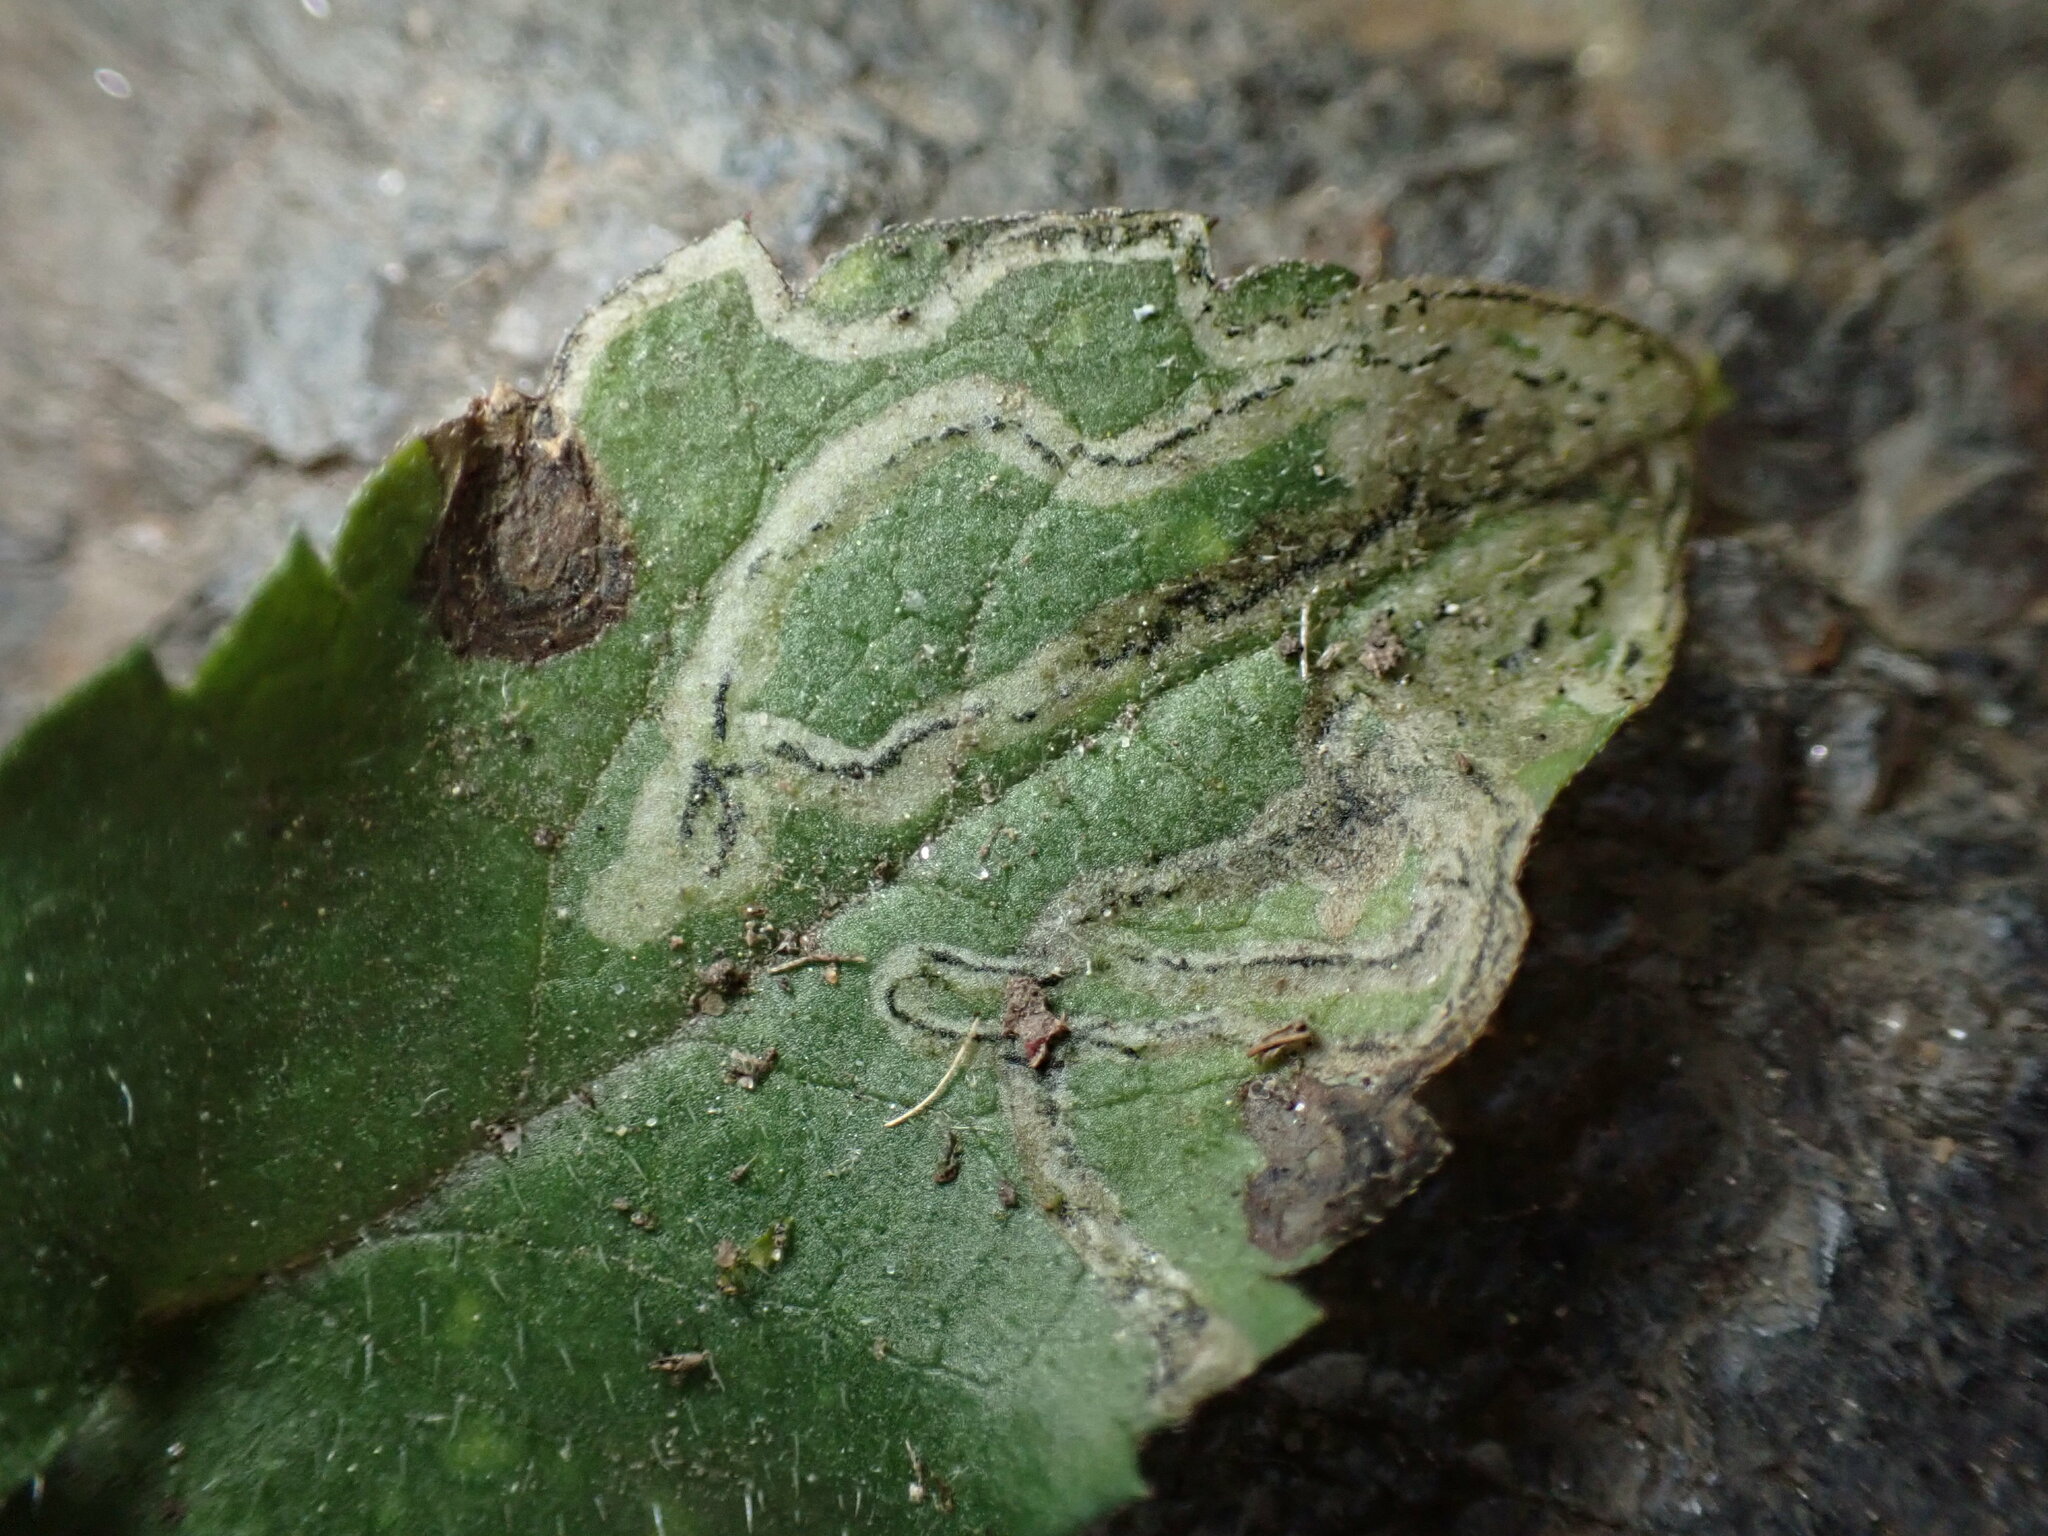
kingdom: Animalia
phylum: Arthropoda
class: Insecta
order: Diptera
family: Agromyzidae
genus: Liriomyza
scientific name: Liriomyza eupatorii
